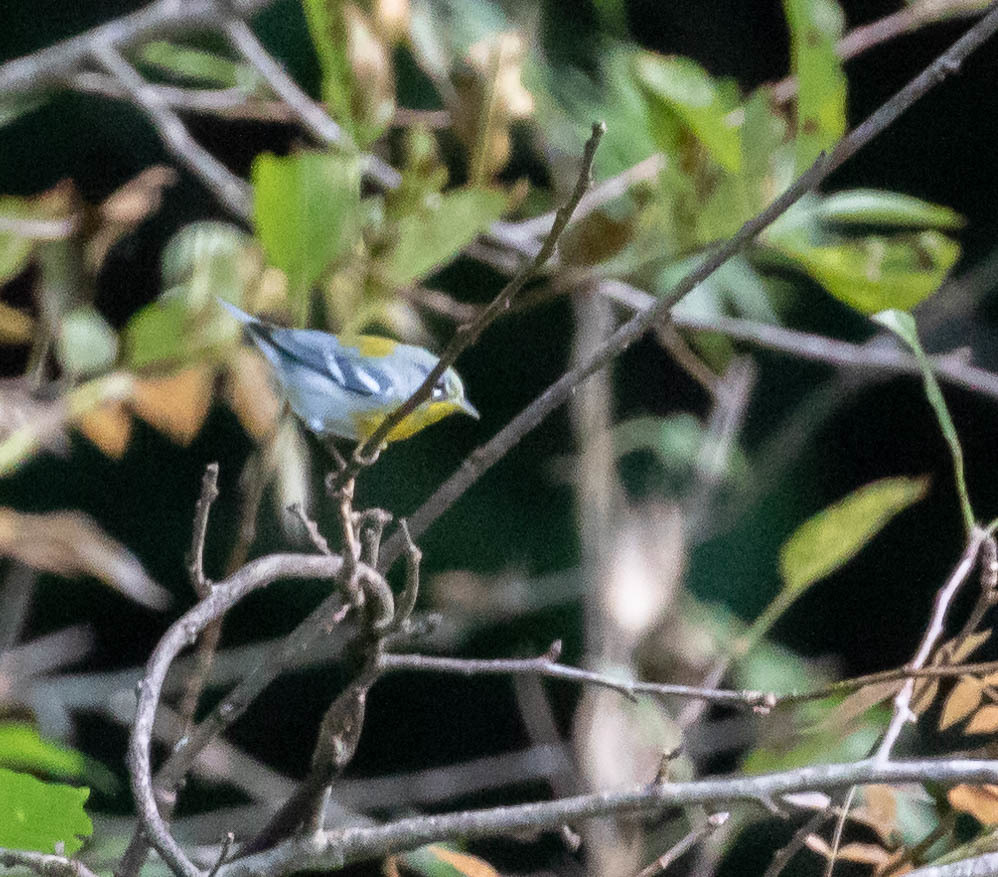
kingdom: Animalia
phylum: Chordata
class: Aves
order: Passeriformes
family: Parulidae
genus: Setophaga
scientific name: Setophaga americana
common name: Northern parula
